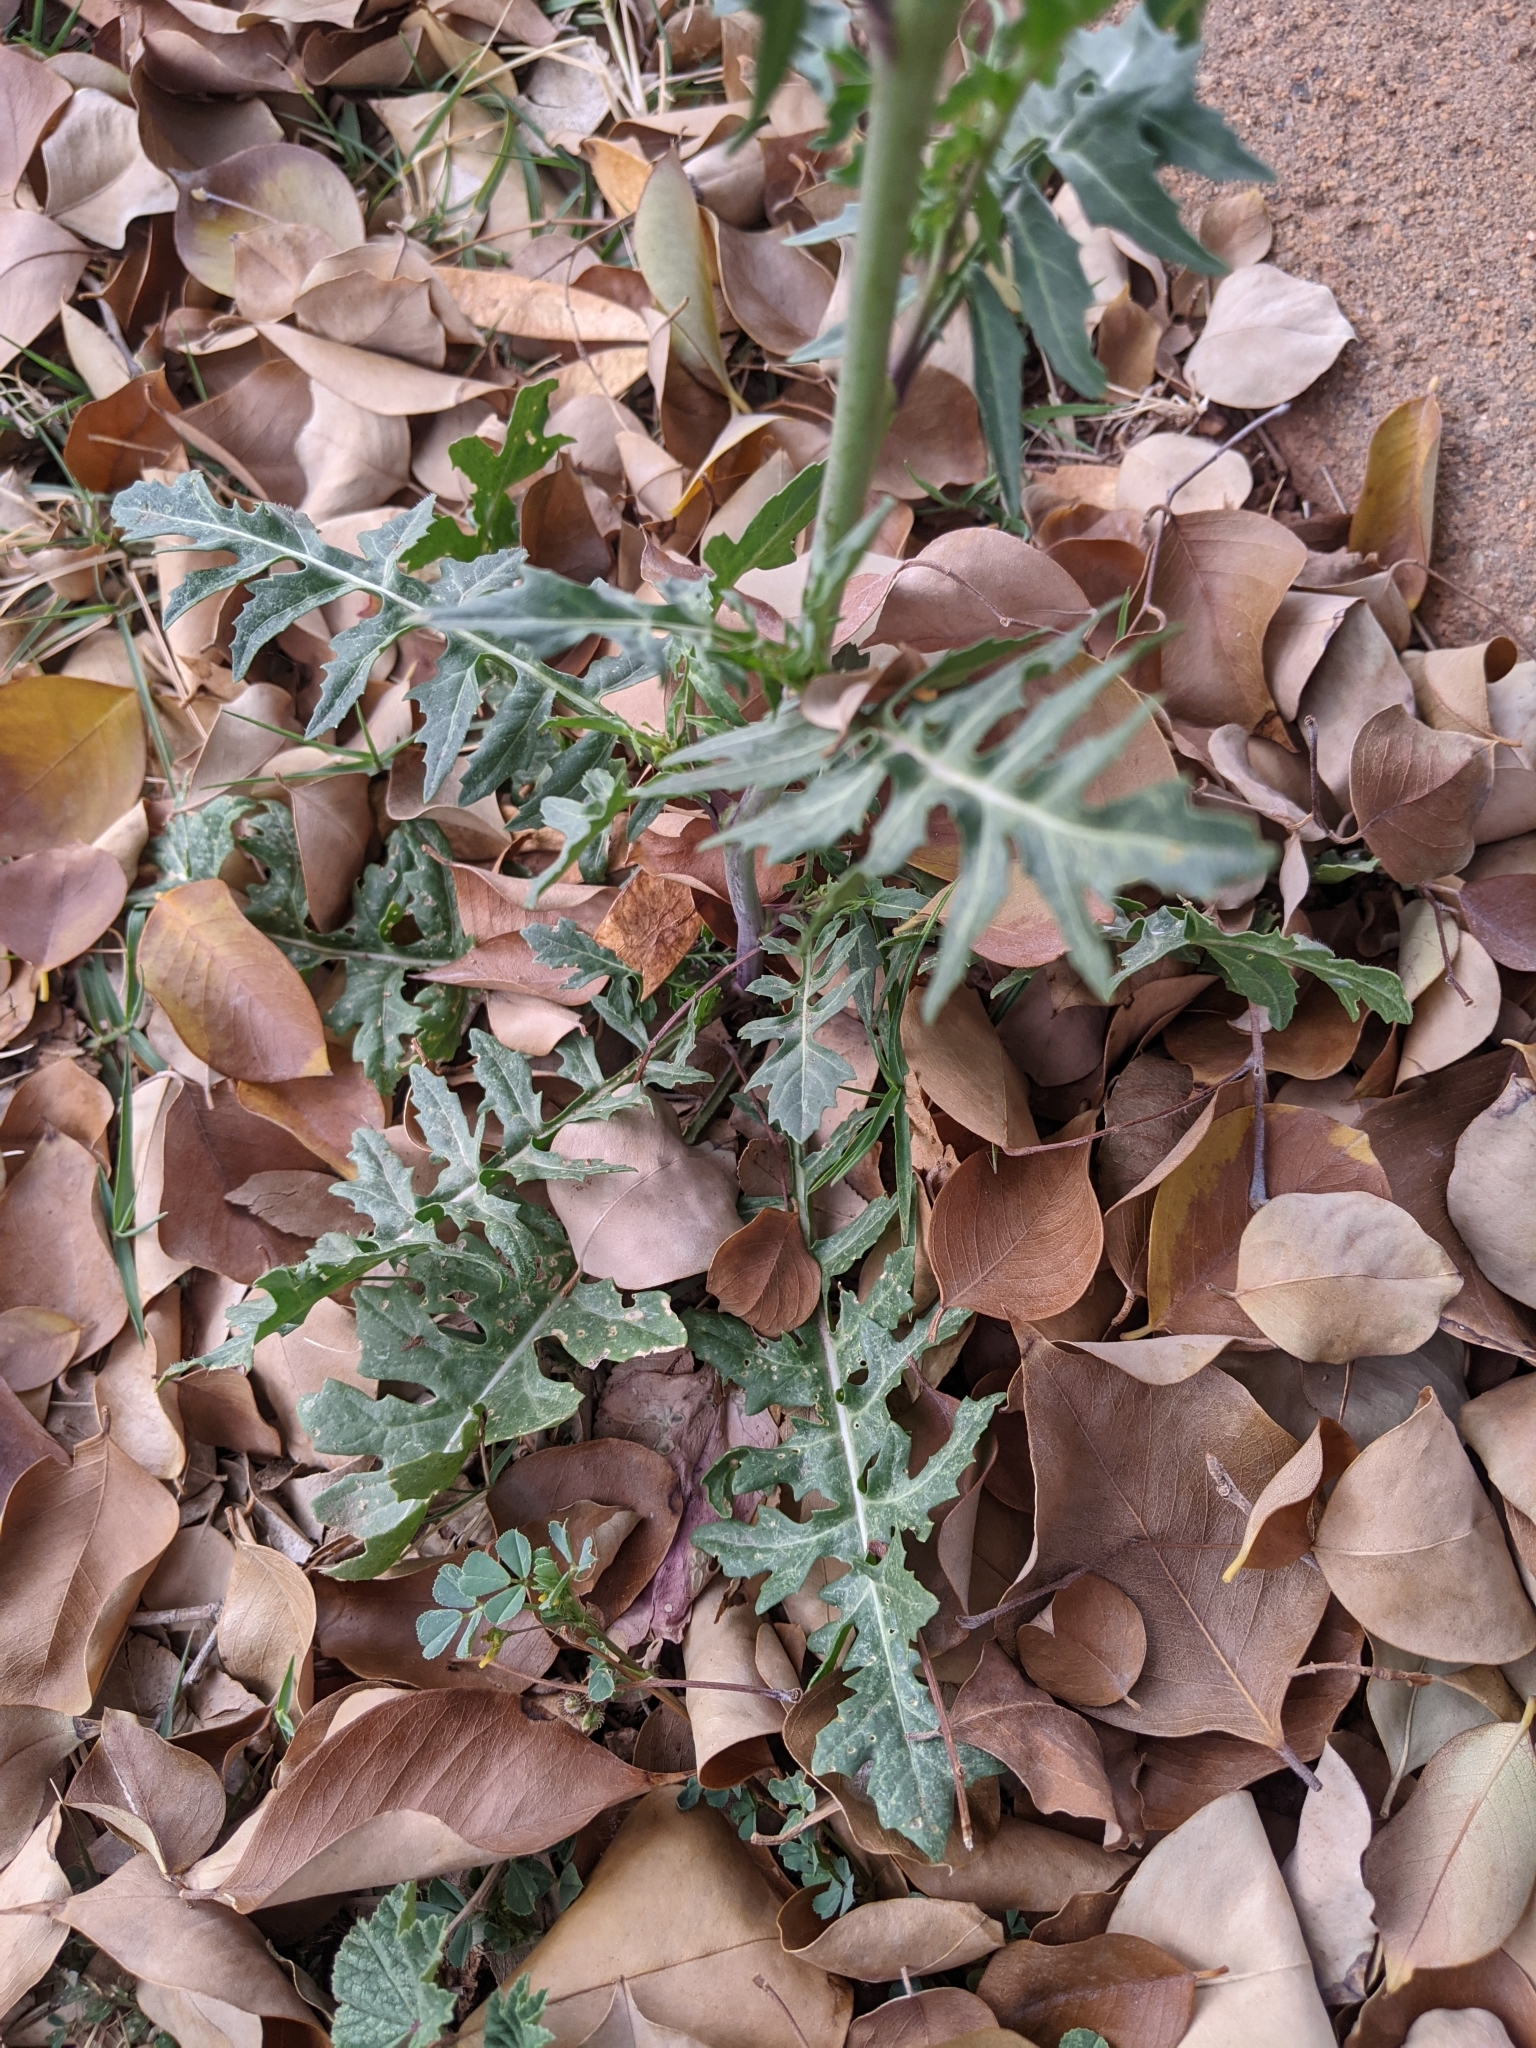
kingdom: Plantae
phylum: Tracheophyta
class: Magnoliopsida
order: Brassicales
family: Brassicaceae
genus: Sisymbrium
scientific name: Sisymbrium irio
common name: London rocket
